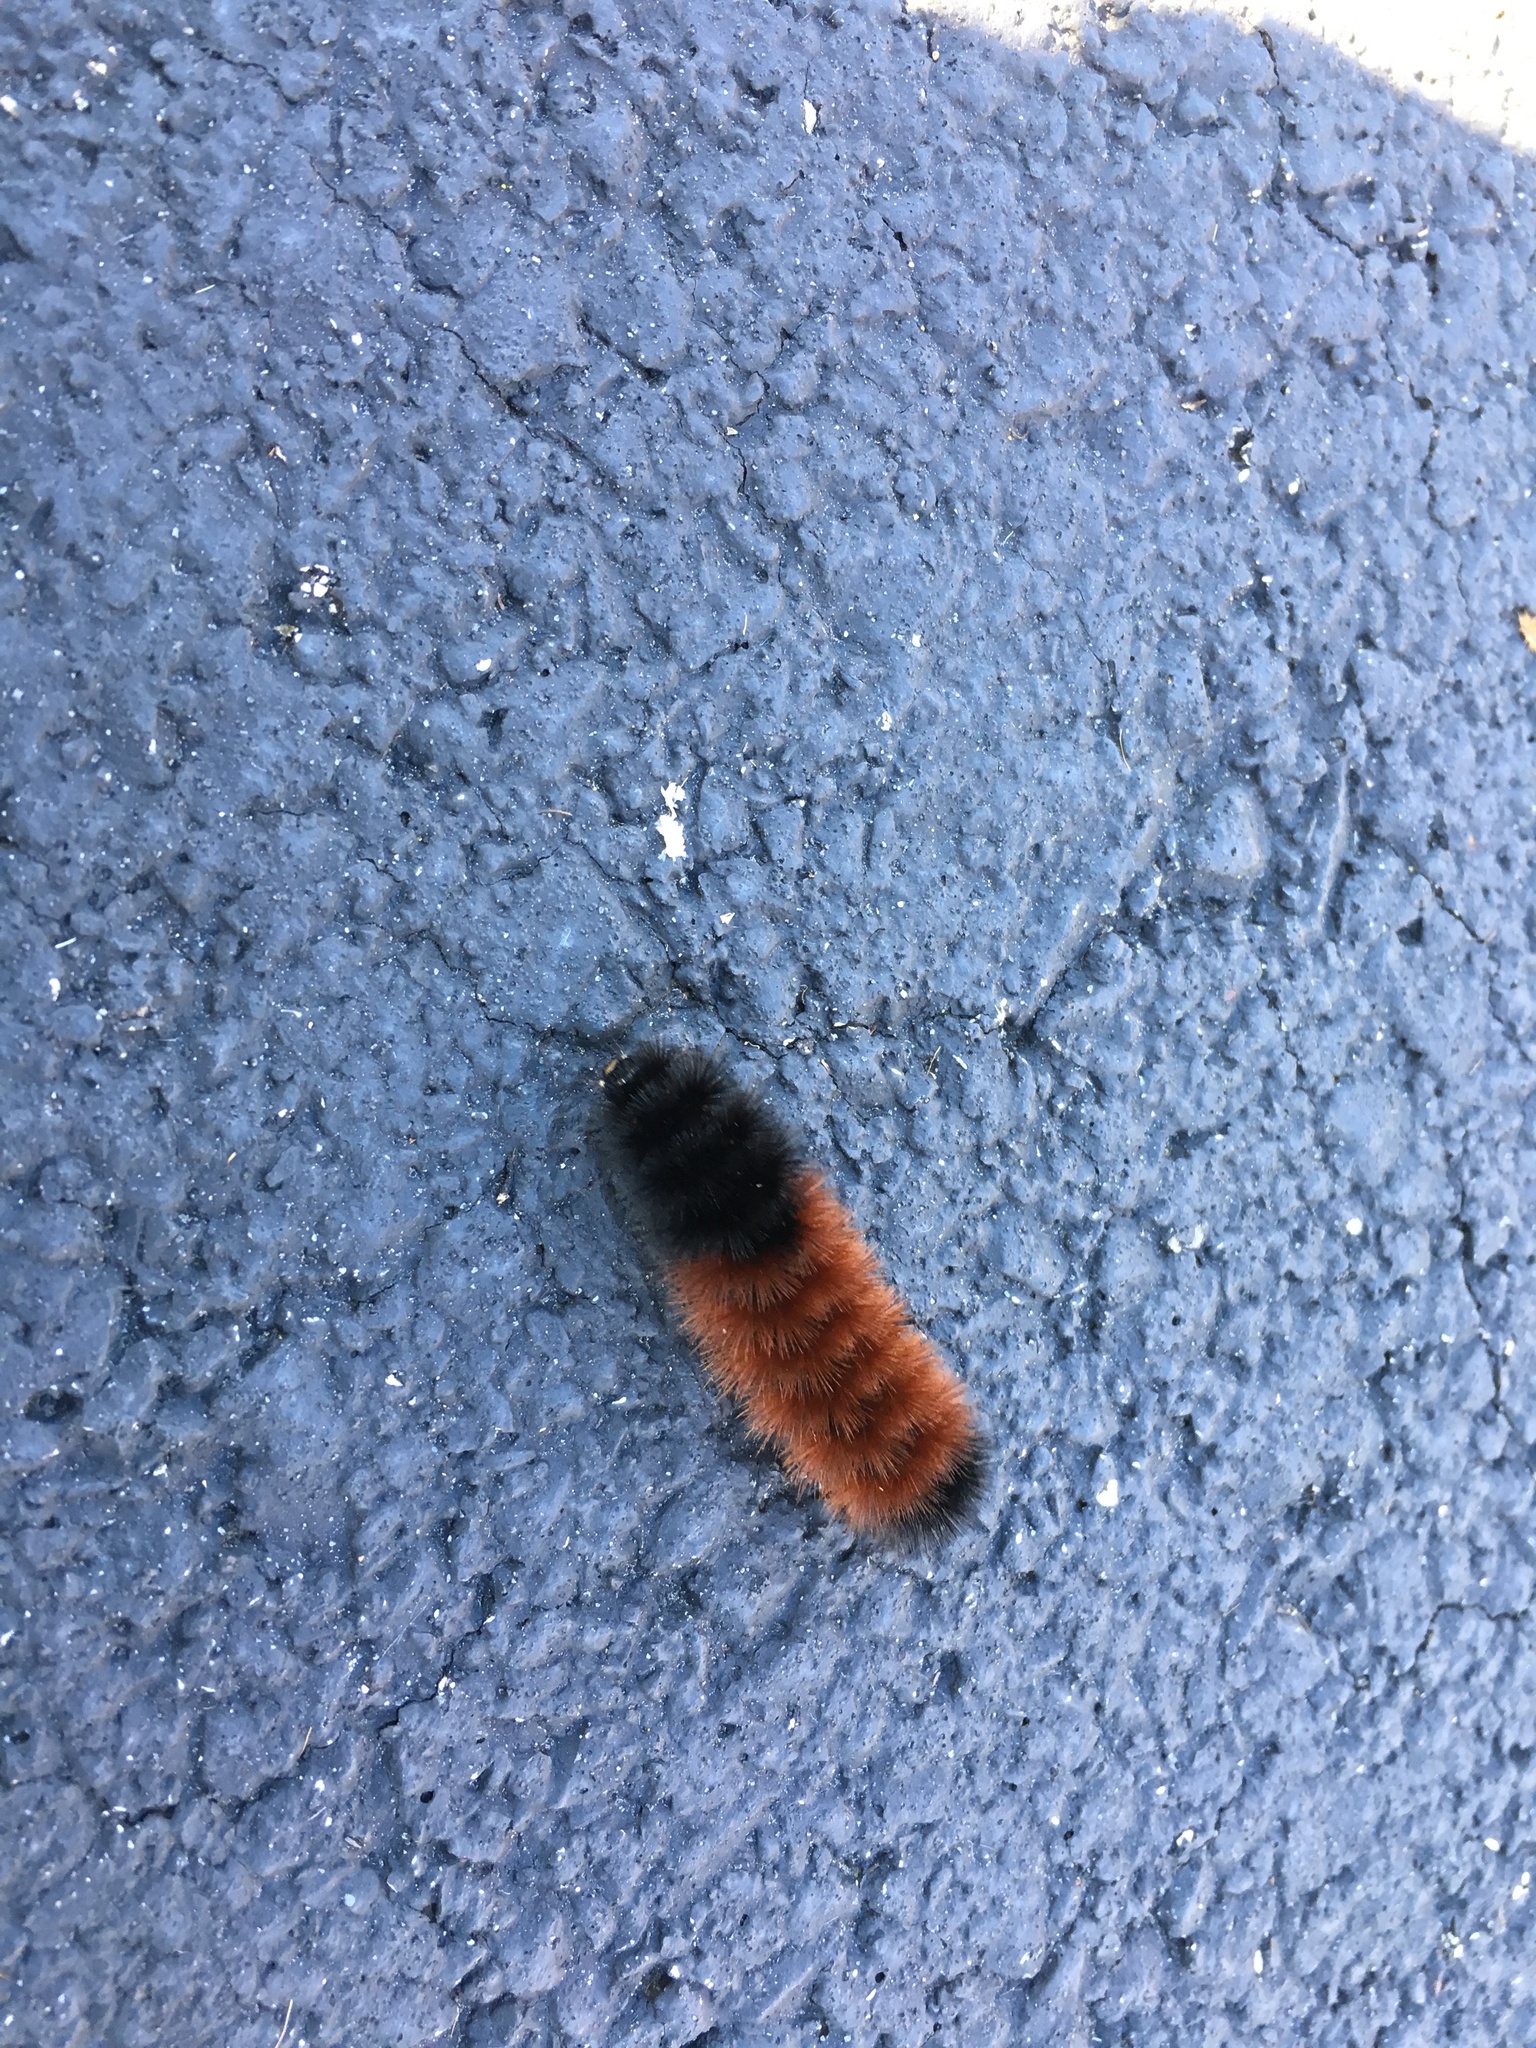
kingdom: Animalia
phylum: Arthropoda
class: Insecta
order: Lepidoptera
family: Erebidae
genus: Pyrrharctia
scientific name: Pyrrharctia isabella
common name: Isabella tiger moth
